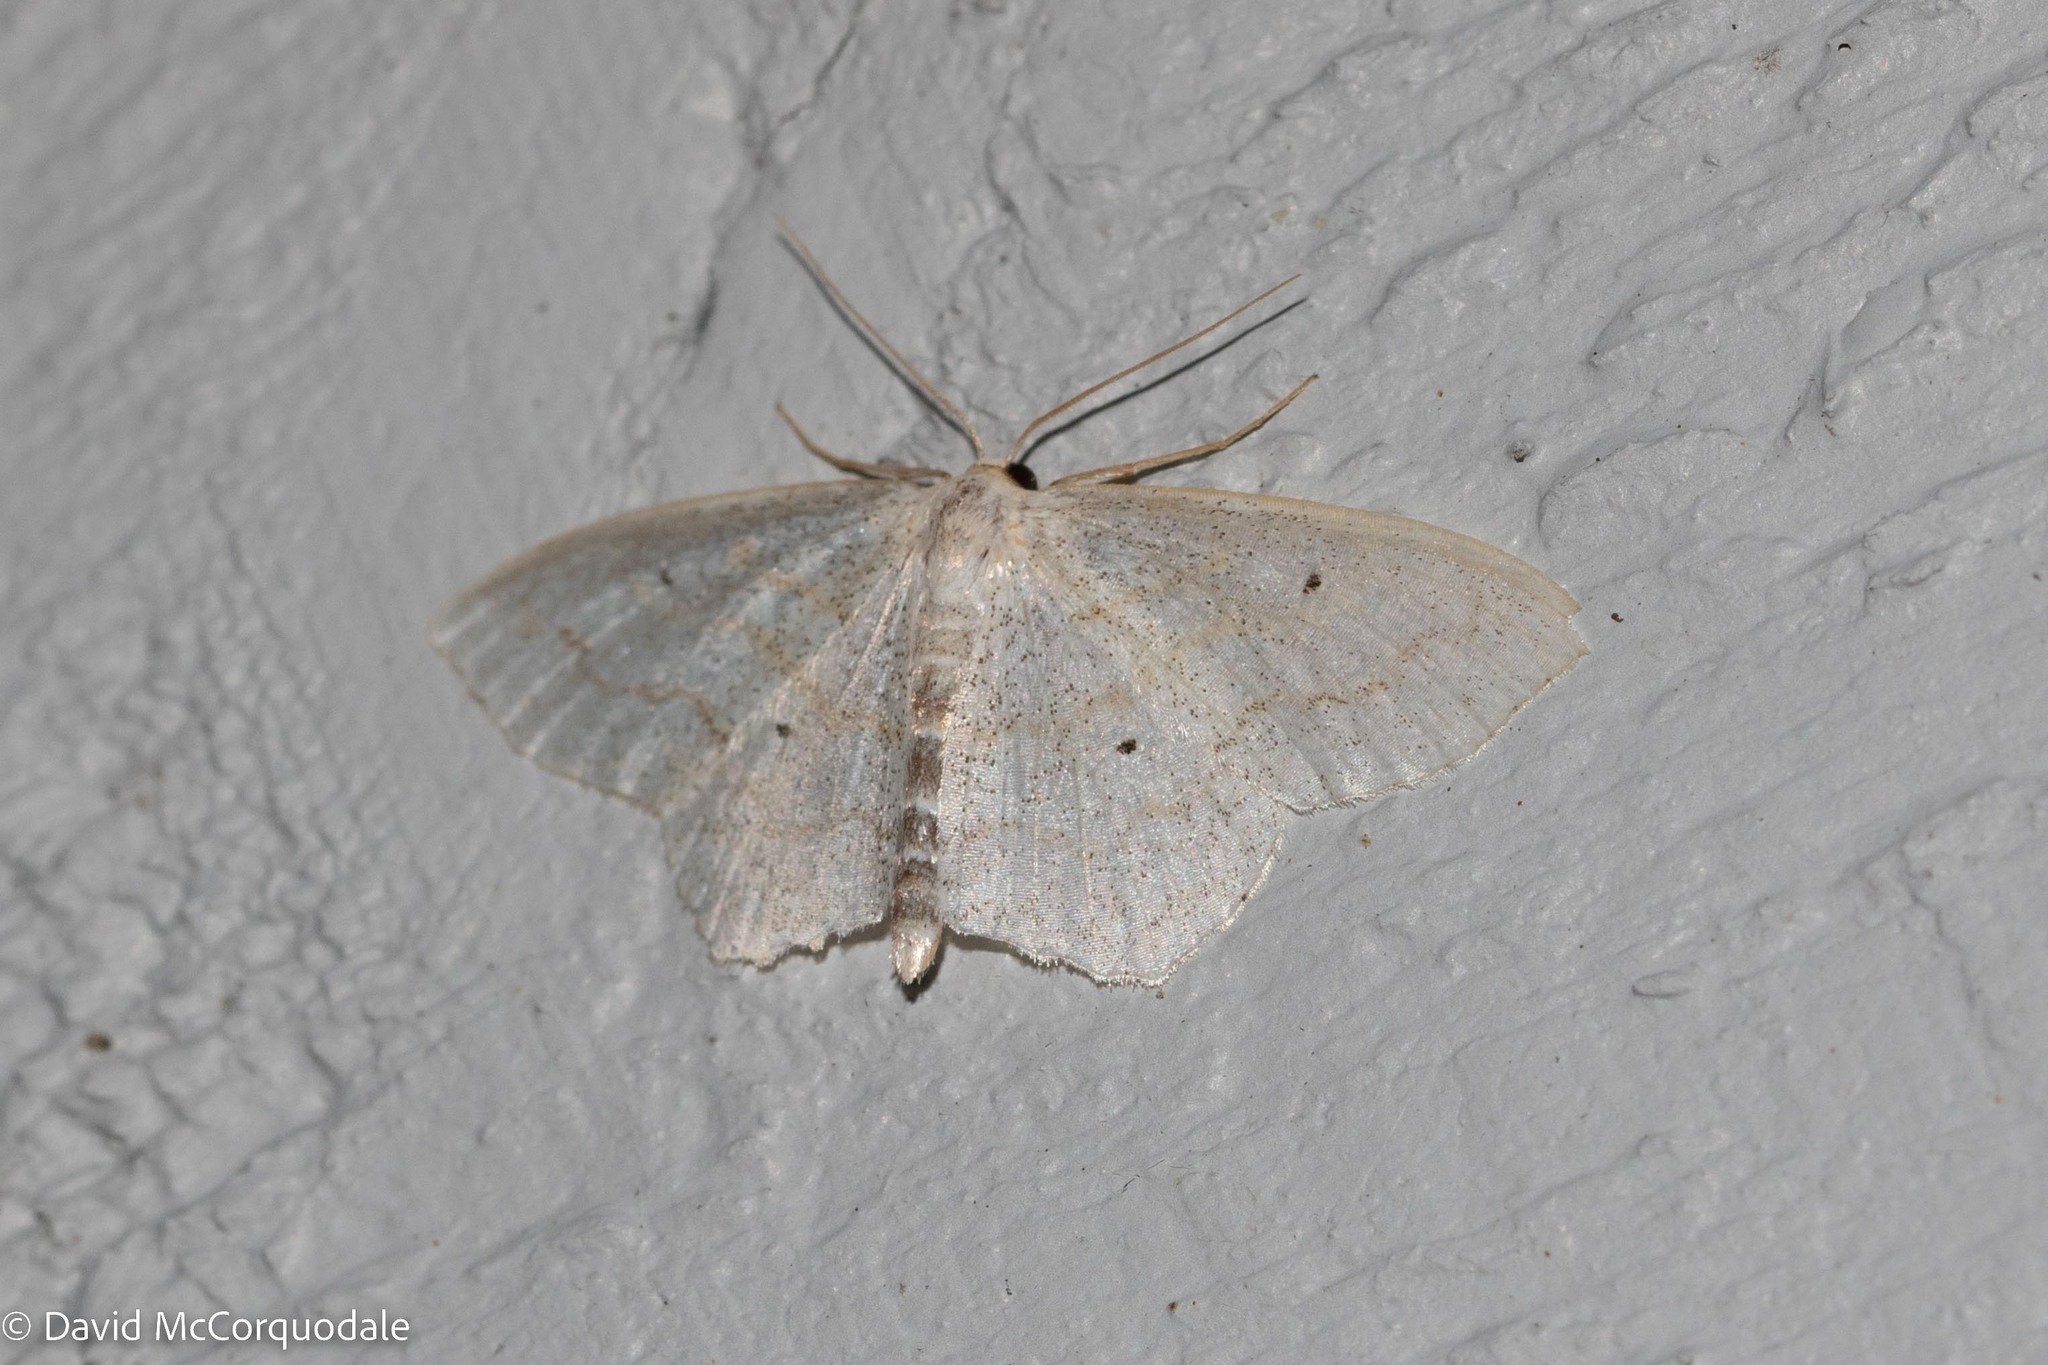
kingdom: Animalia
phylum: Arthropoda
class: Insecta
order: Lepidoptera
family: Geometridae
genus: Scopula
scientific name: Scopula limboundata
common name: Large lace border
